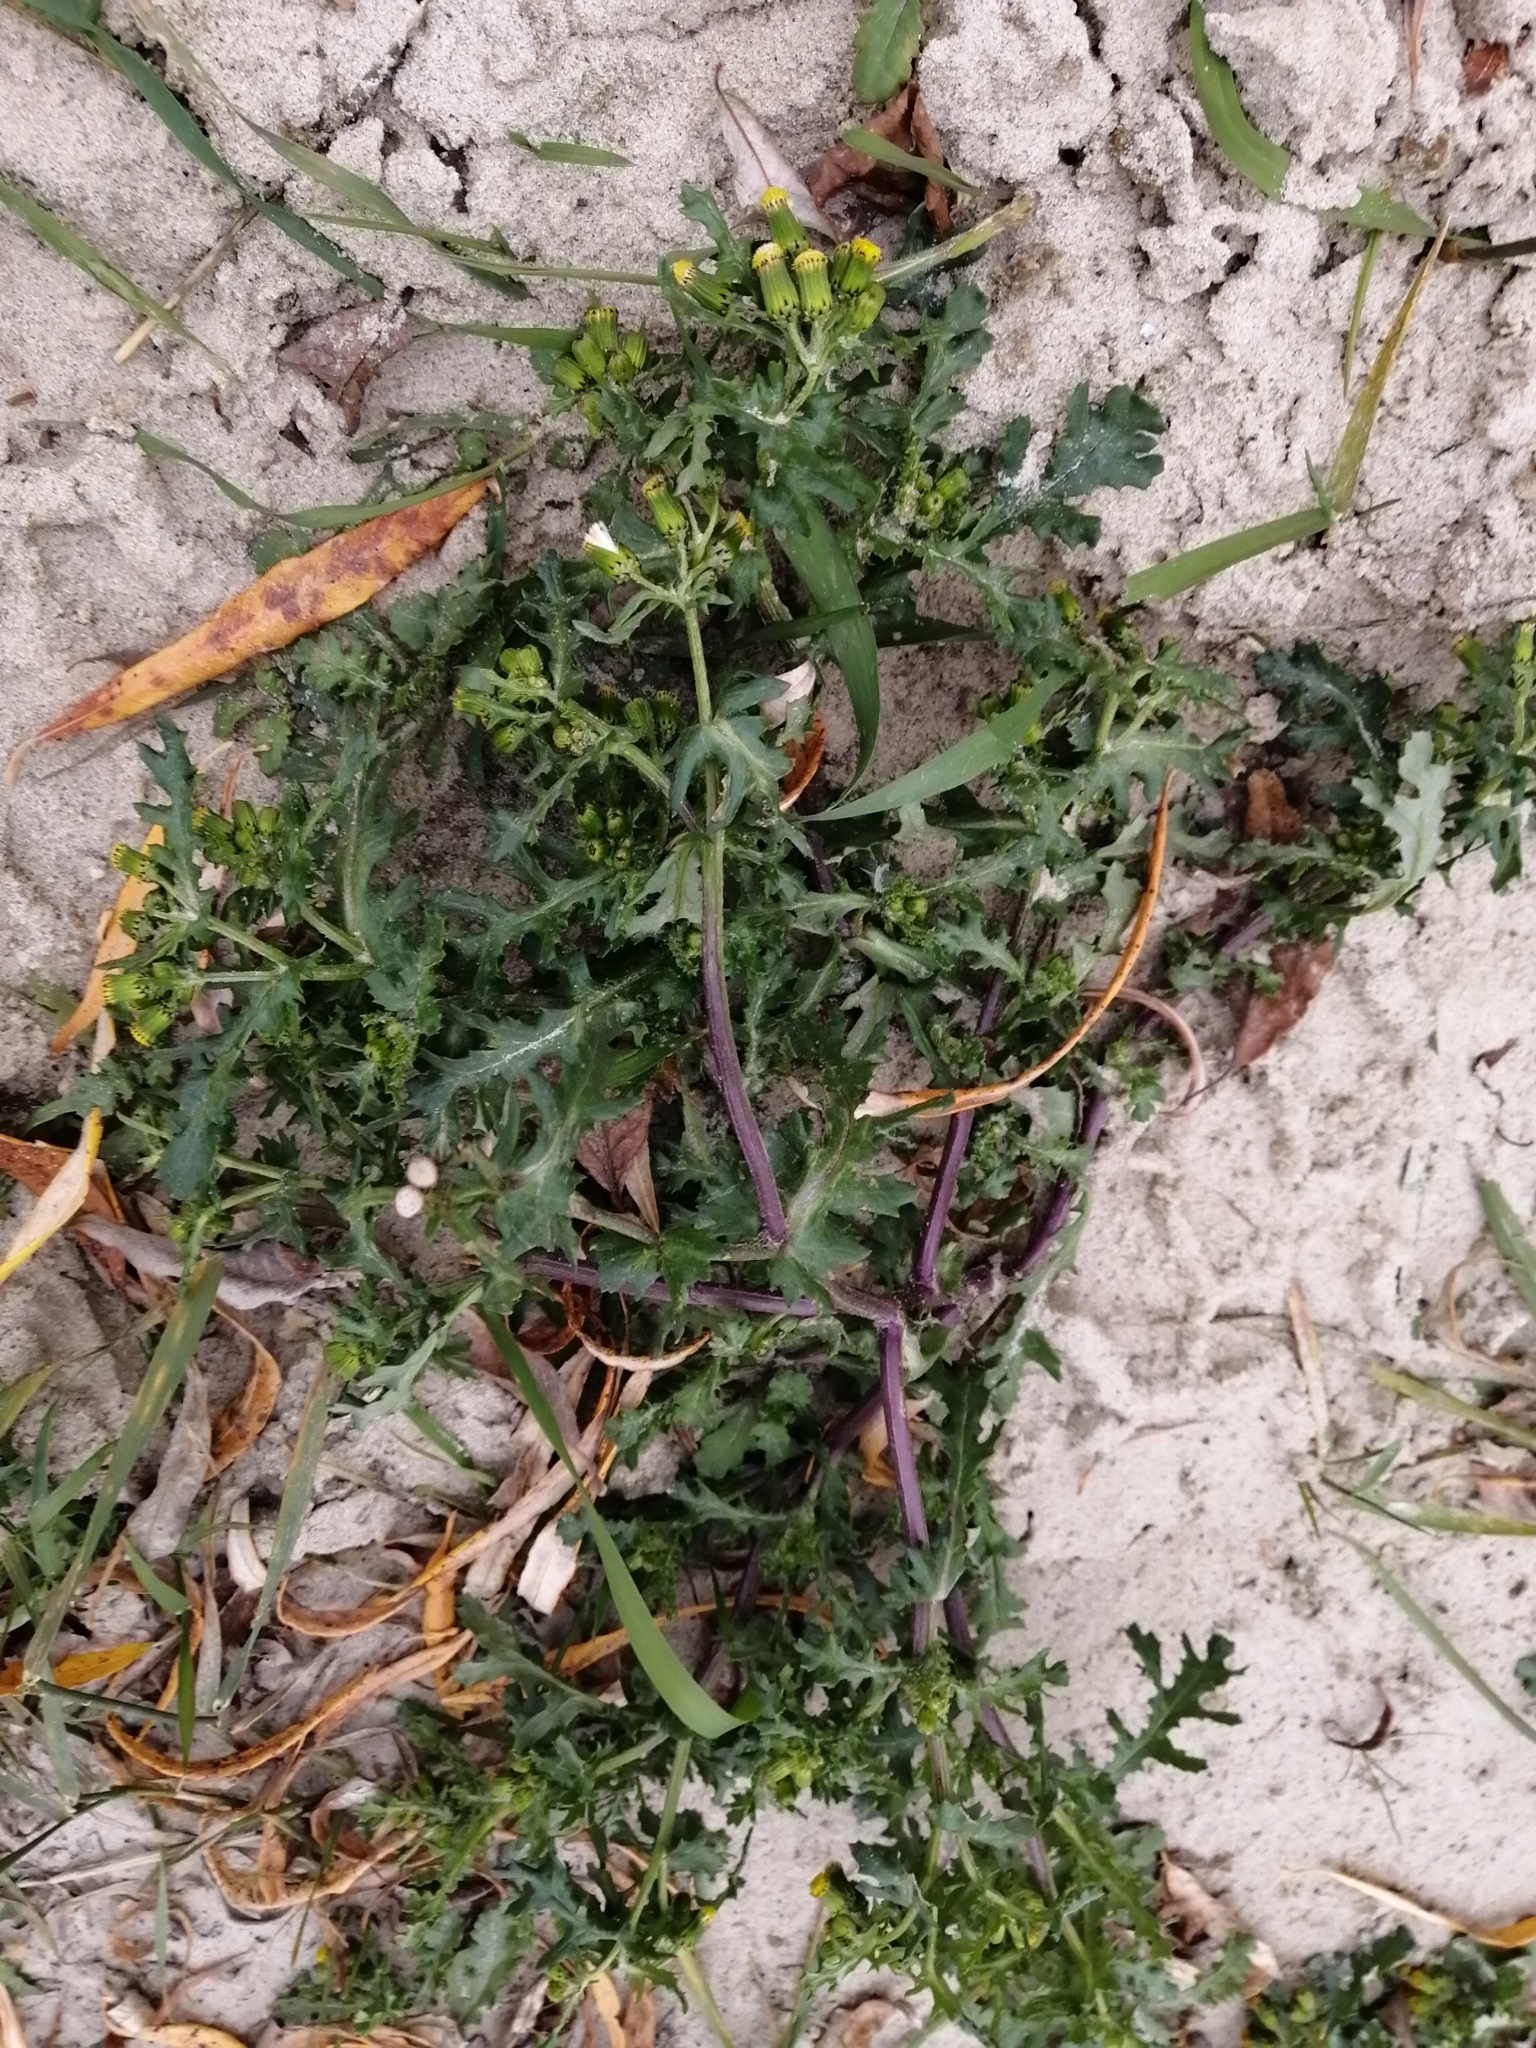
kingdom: Plantae
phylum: Tracheophyta
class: Magnoliopsida
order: Asterales
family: Asteraceae
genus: Senecio
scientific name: Senecio vulgaris
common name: Old-man-in-the-spring
